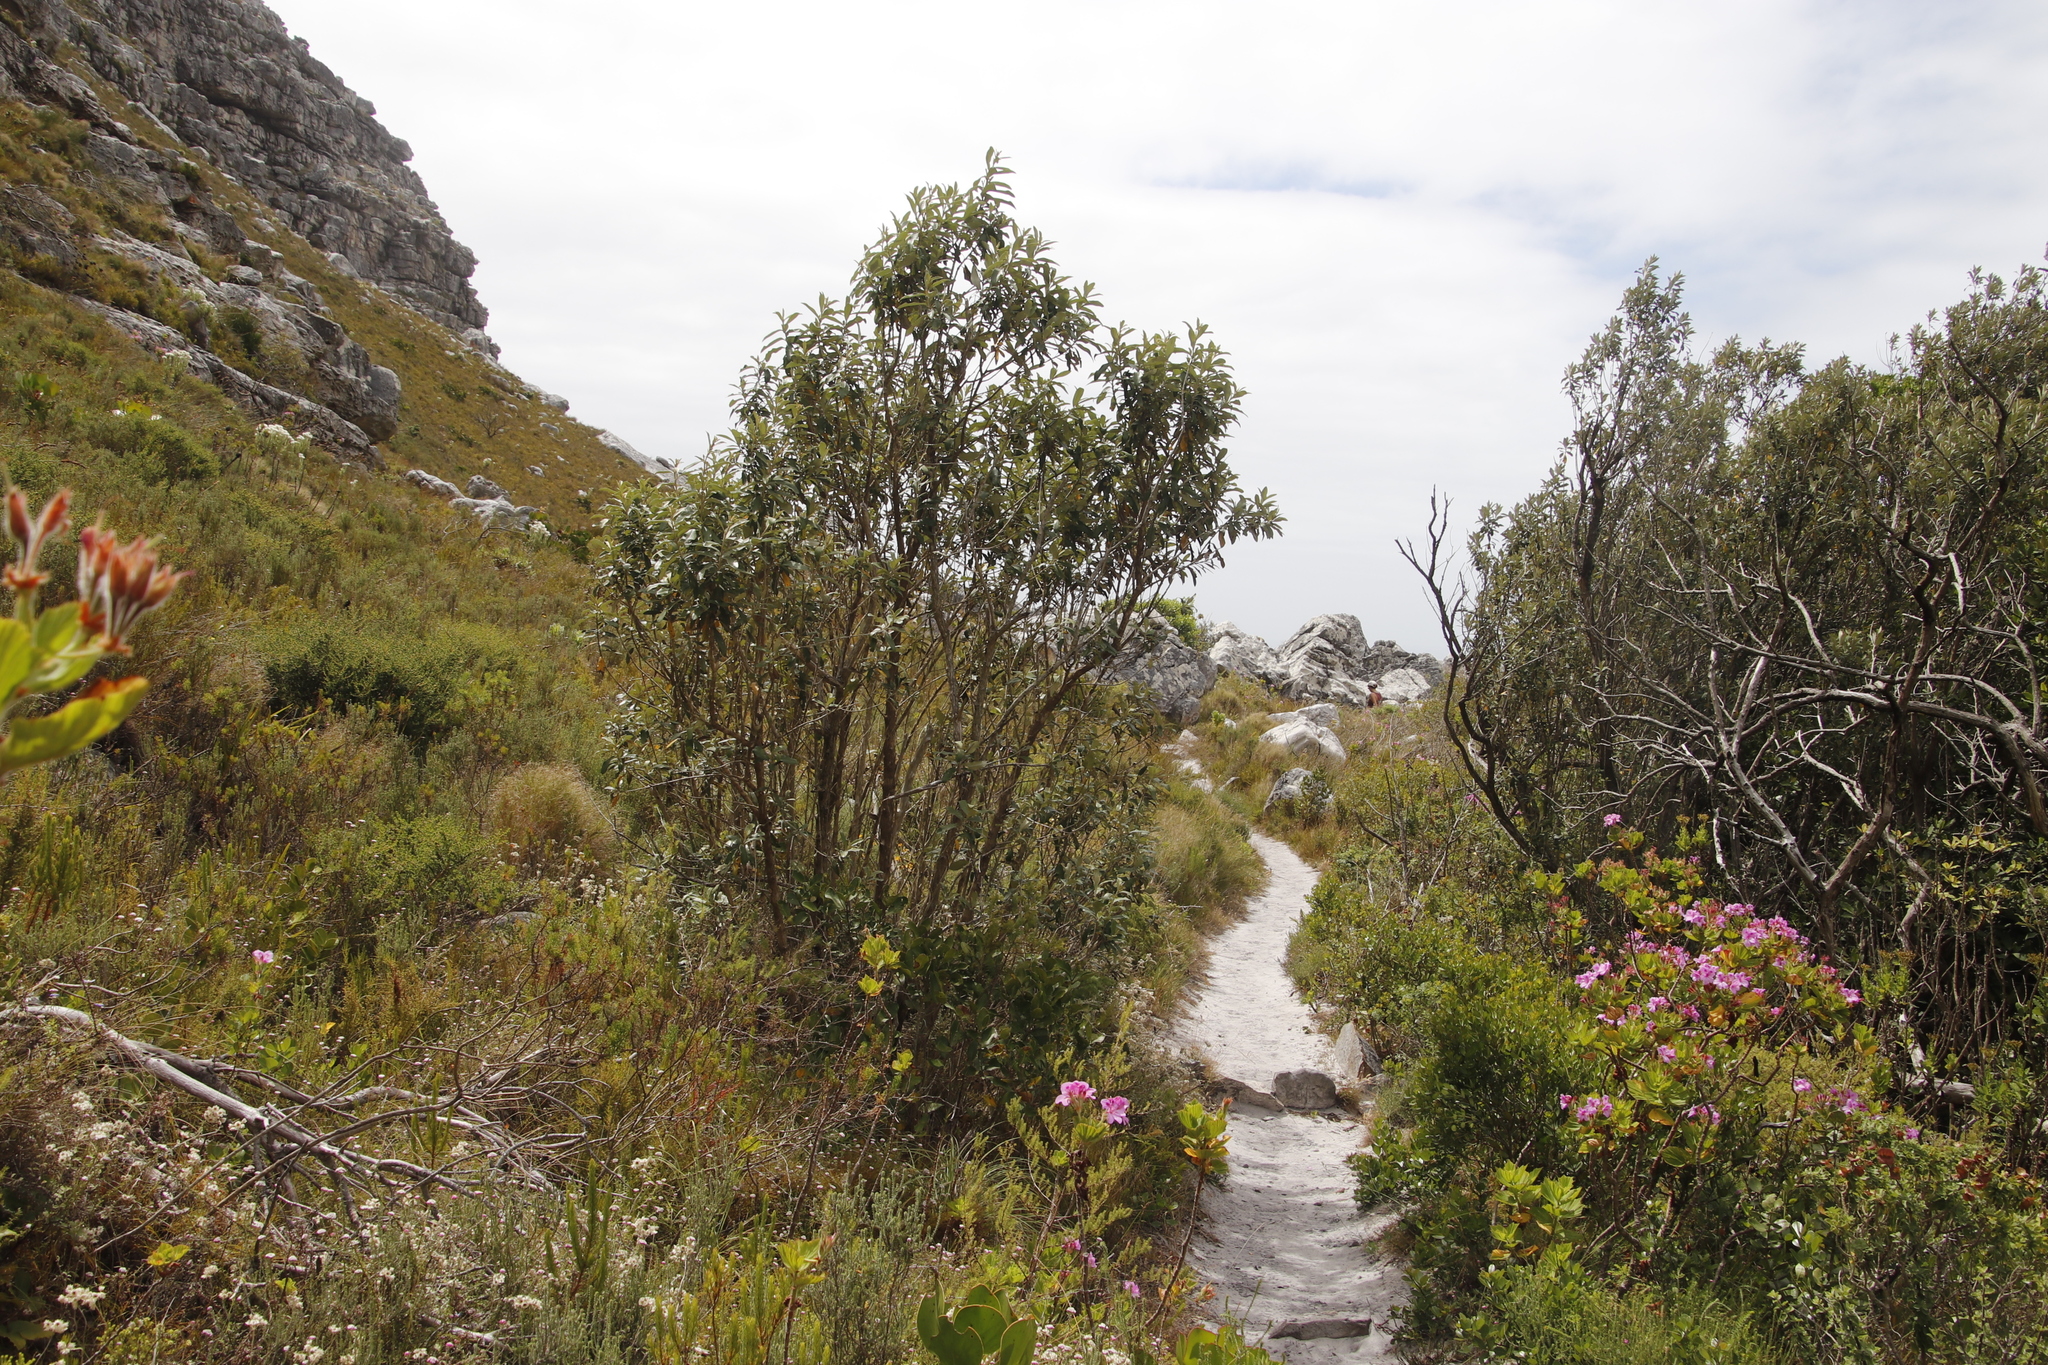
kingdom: Plantae
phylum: Tracheophyta
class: Magnoliopsida
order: Asterales
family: Asteraceae
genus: Tarchonanthus
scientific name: Tarchonanthus littoralis
